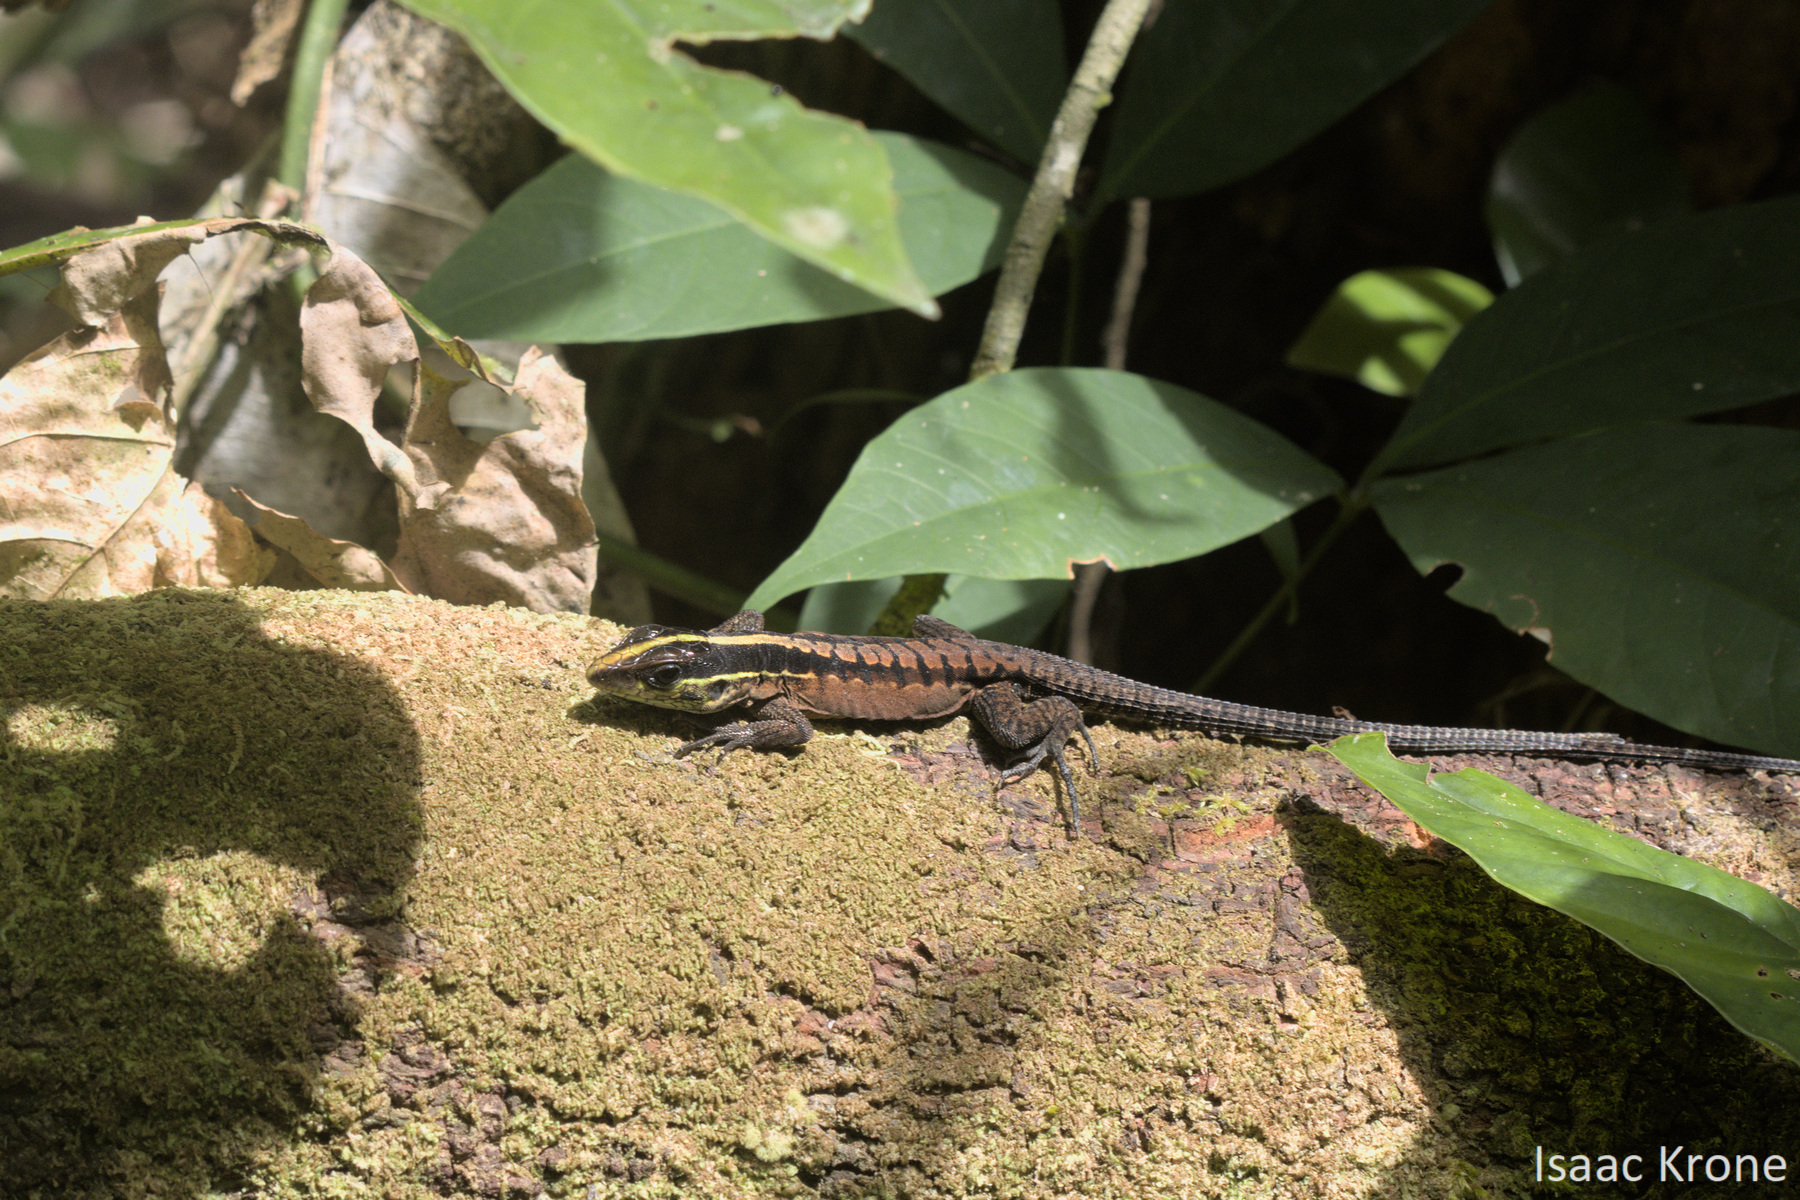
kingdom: Animalia
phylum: Chordata
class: Squamata
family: Teiidae
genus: Kentropyx
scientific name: Kentropyx pelviceps
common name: Forest whiptail
